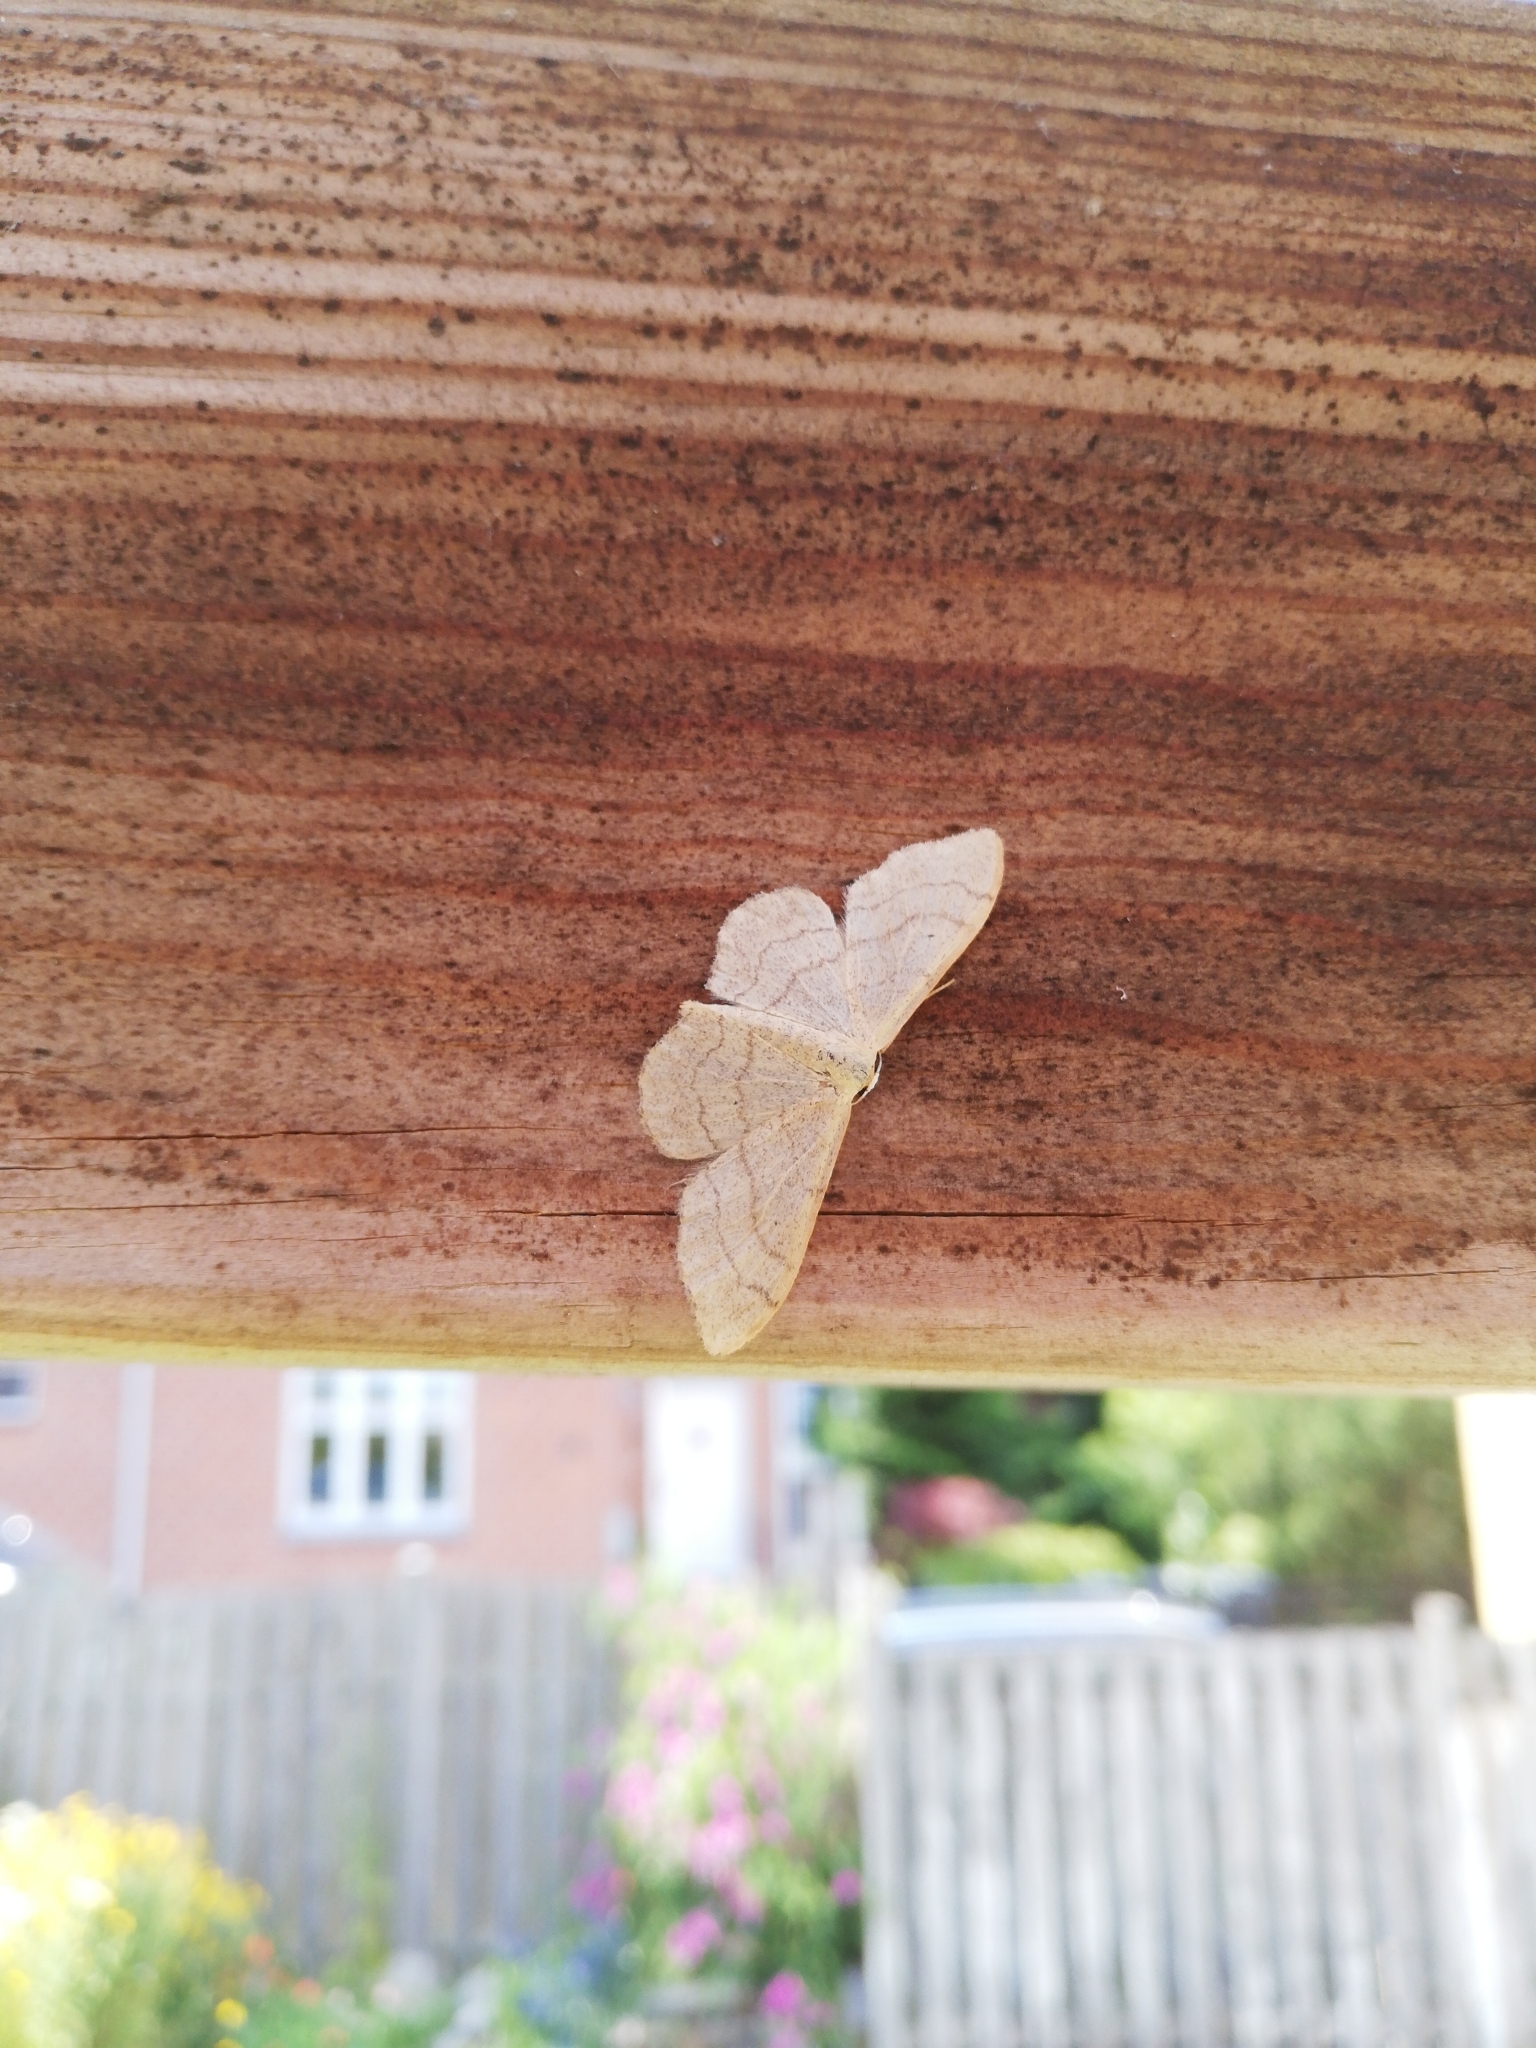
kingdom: Animalia
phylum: Arthropoda
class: Insecta
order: Lepidoptera
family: Geometridae
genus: Idaea
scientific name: Idaea aversata
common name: Riband wave
